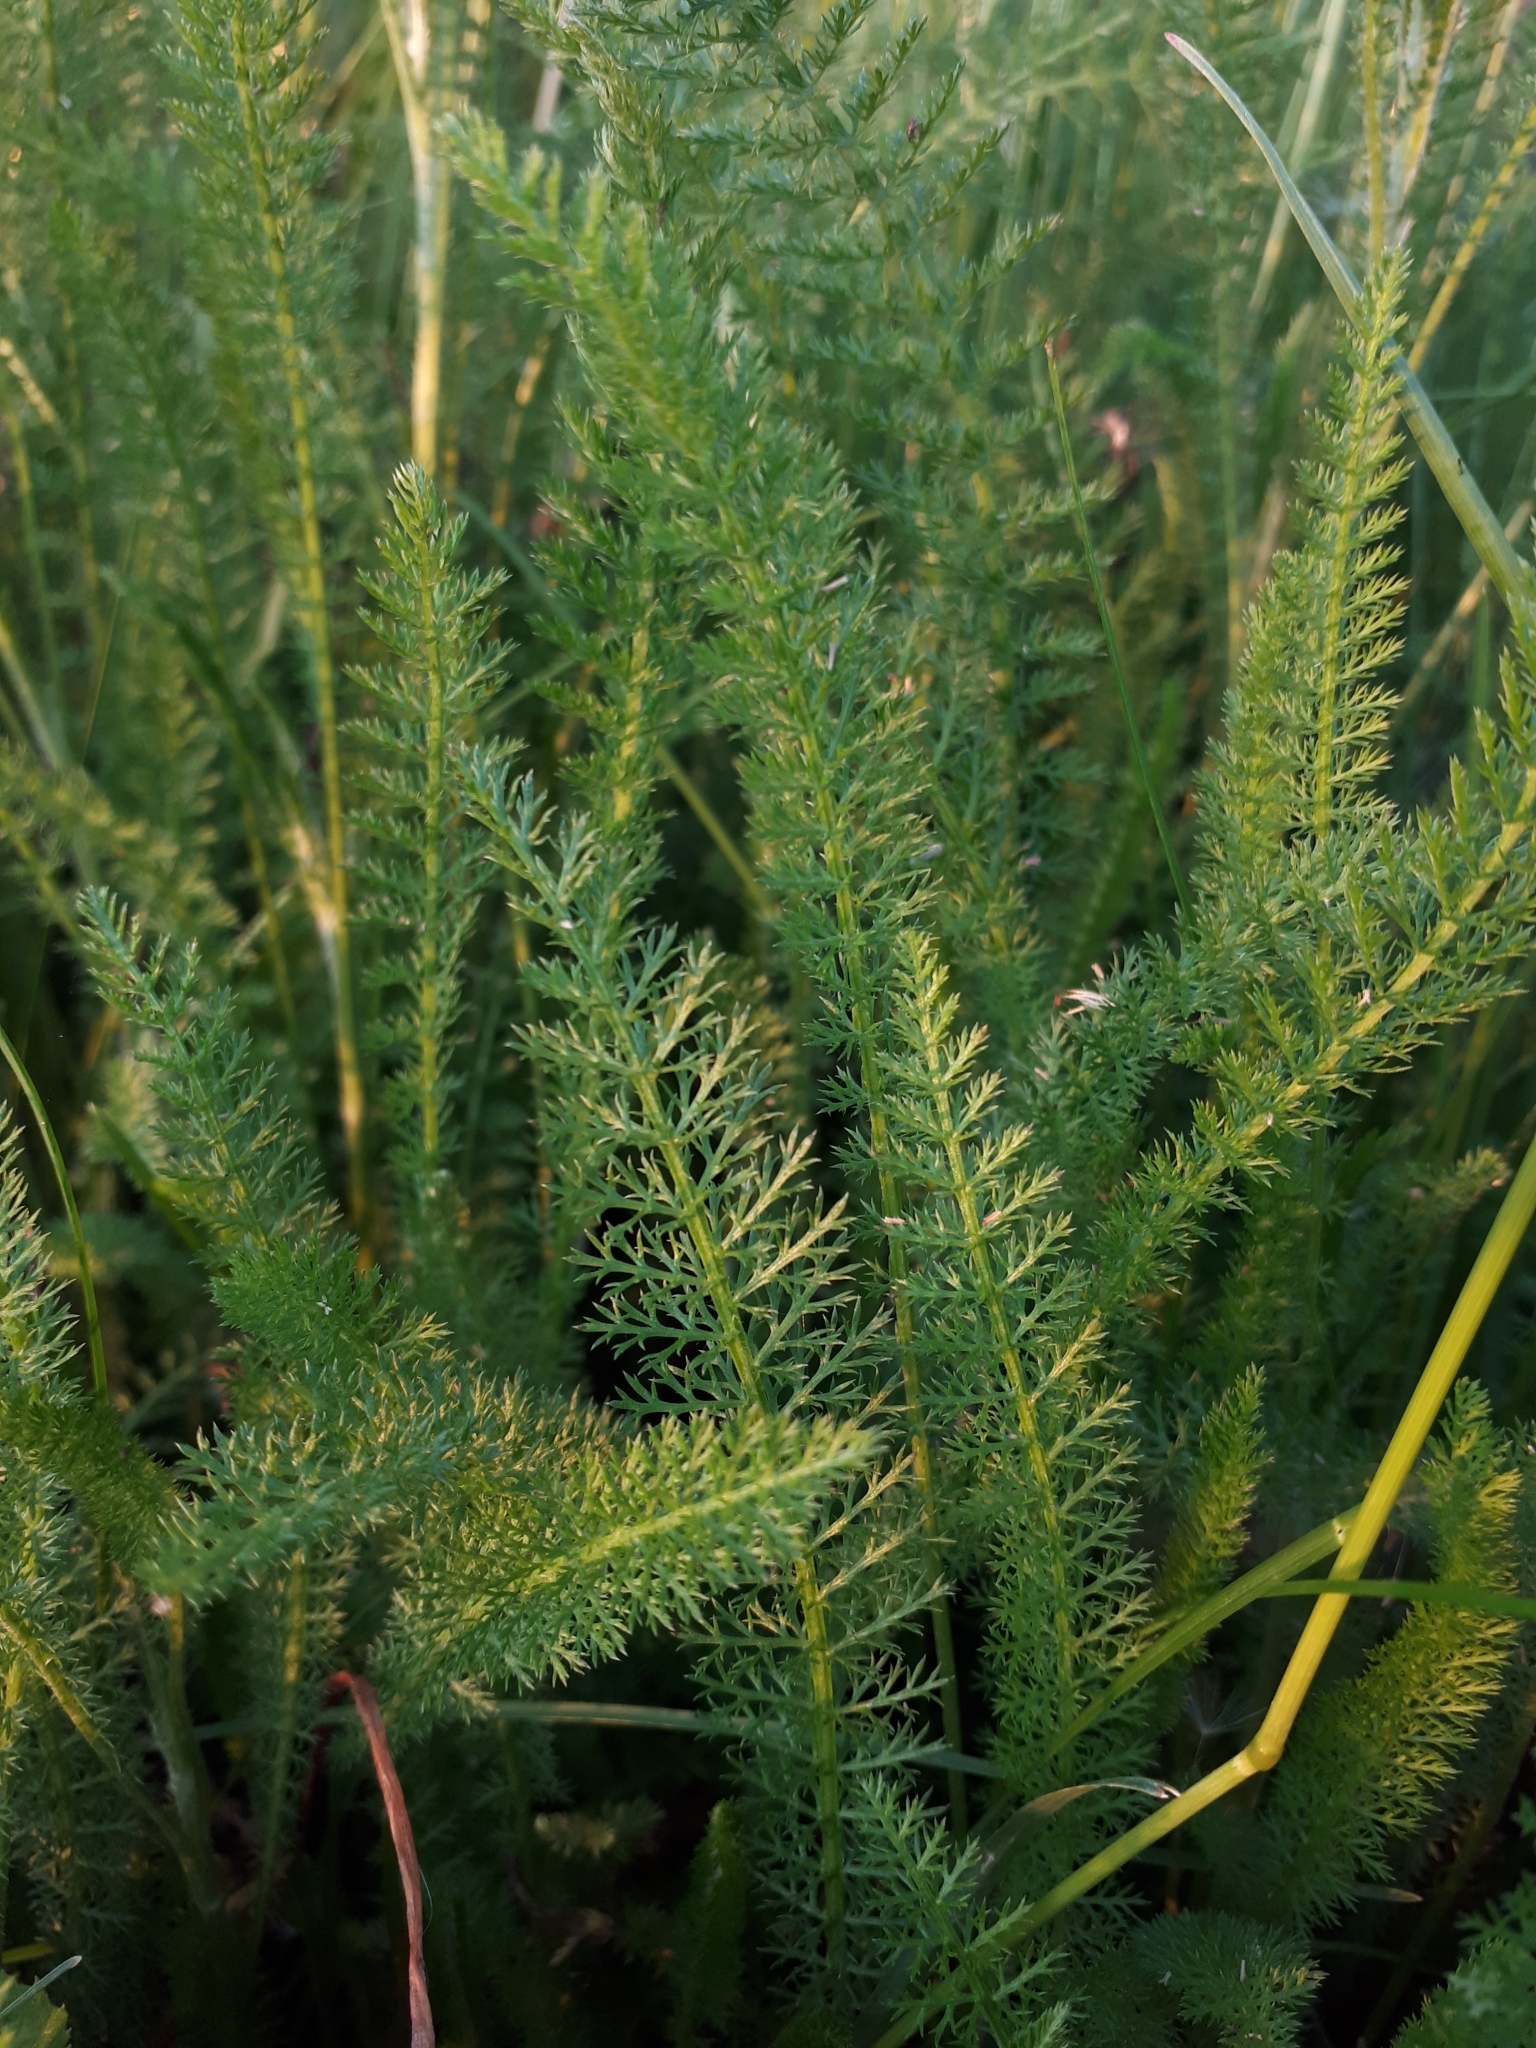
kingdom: Plantae
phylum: Tracheophyta
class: Magnoliopsida
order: Asterales
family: Asteraceae
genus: Achillea
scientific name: Achillea millefolium
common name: Yarrow
